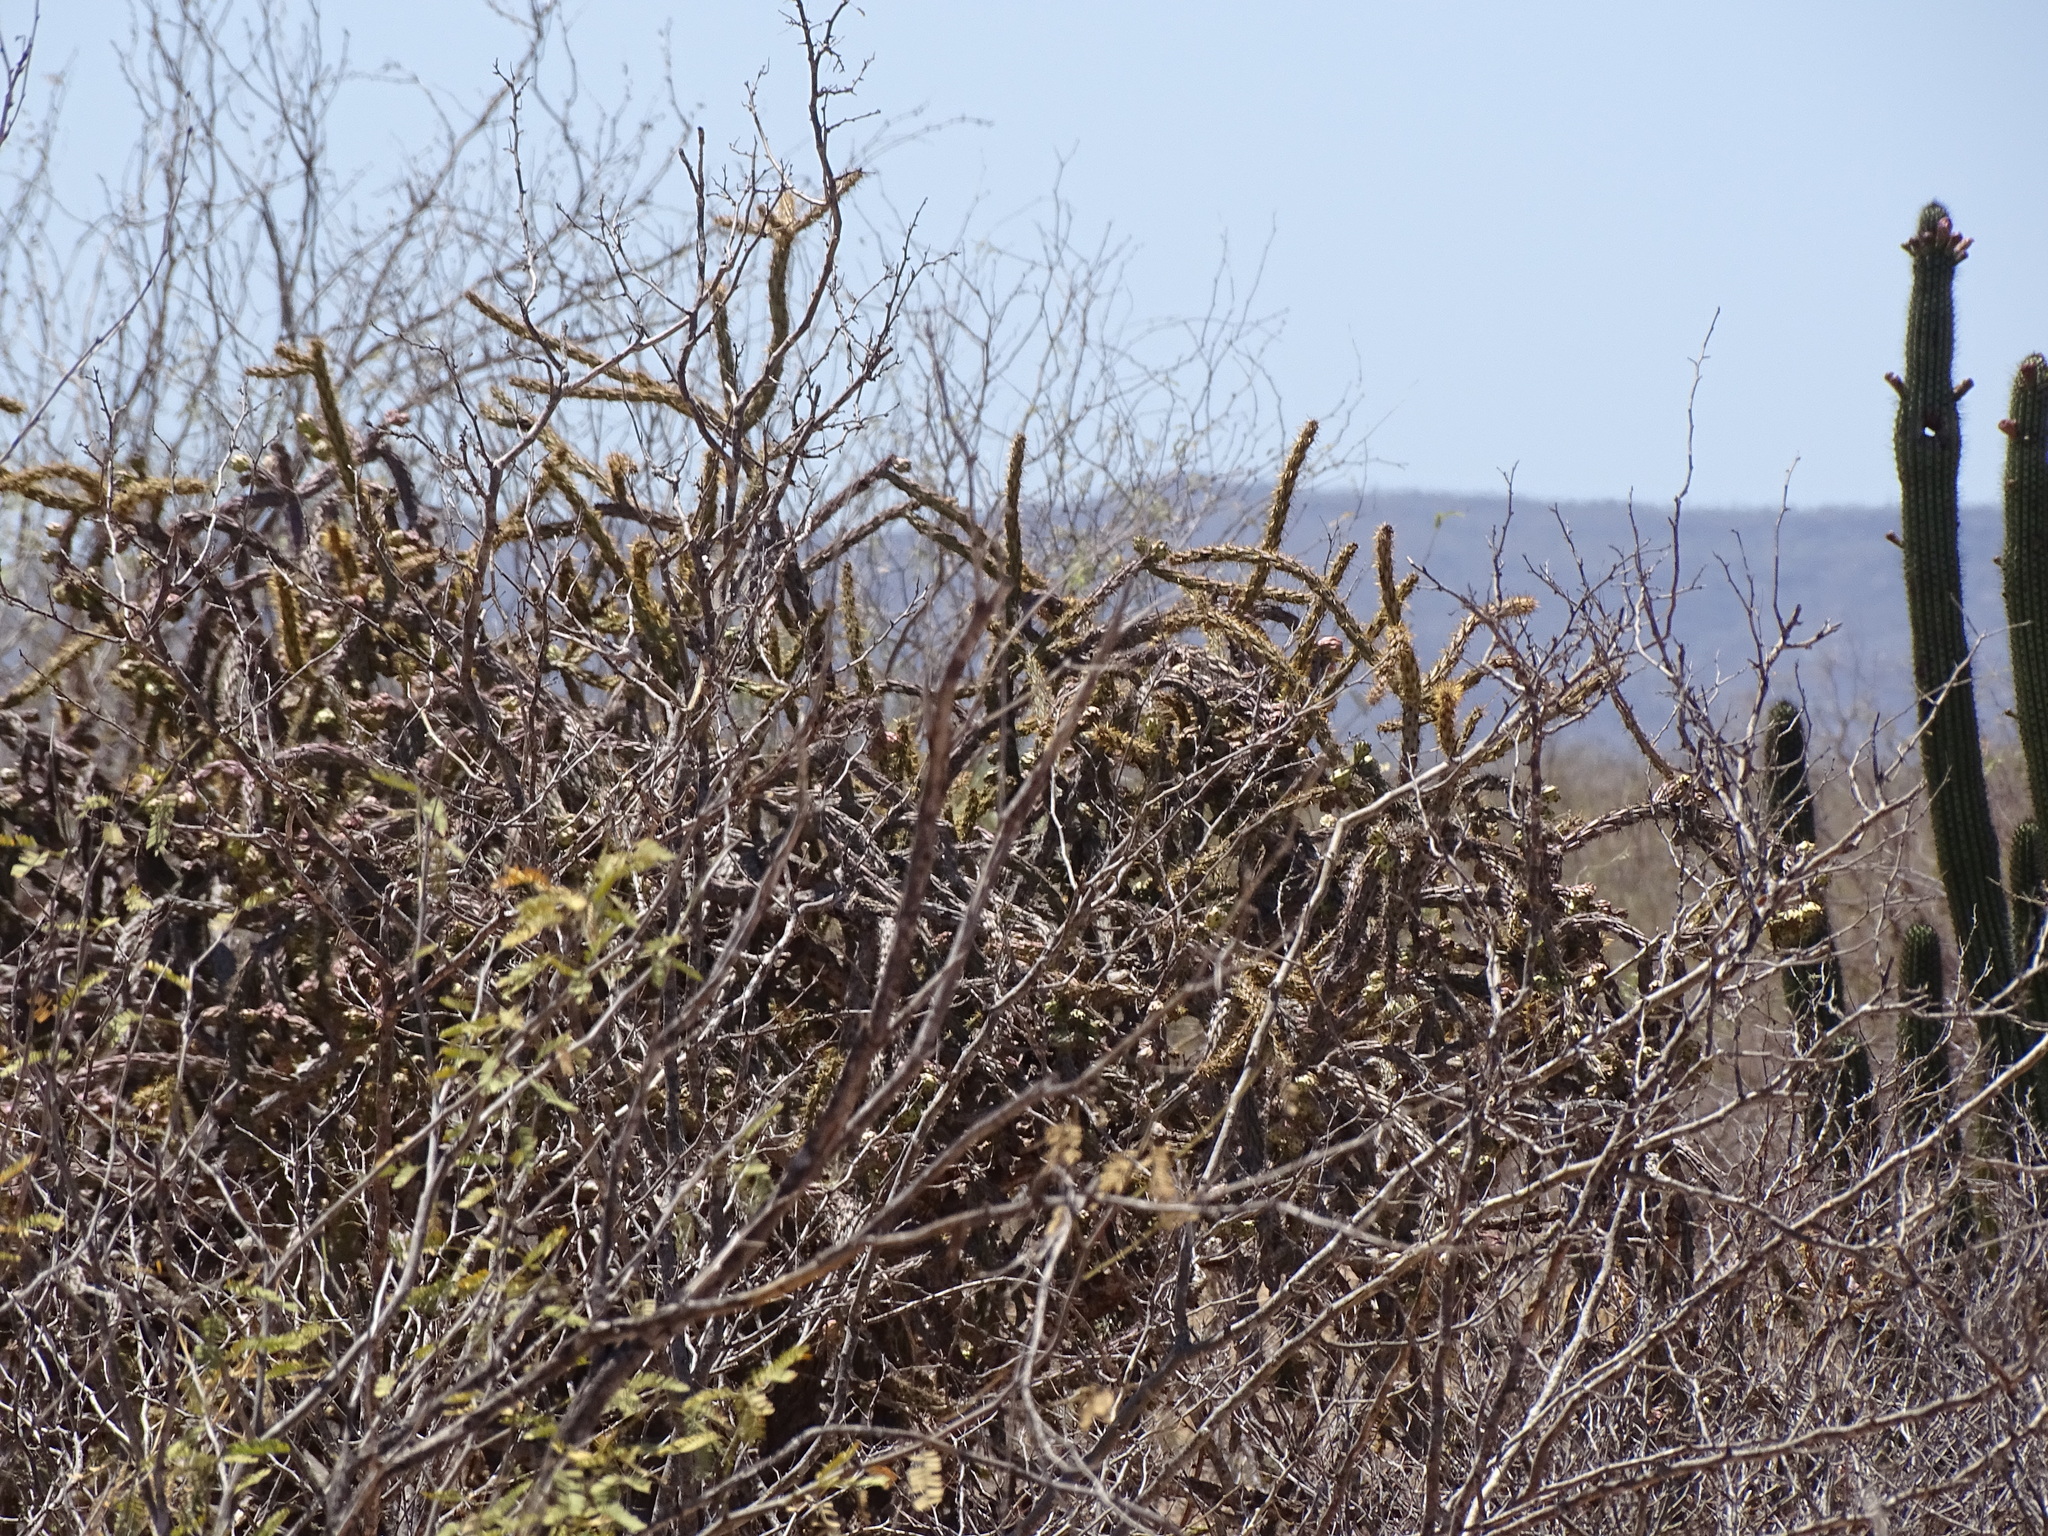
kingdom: Plantae
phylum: Tracheophyta
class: Magnoliopsida
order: Caryophyllales
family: Cactaceae
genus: Cylindropuntia
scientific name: Cylindropuntia thurberi
